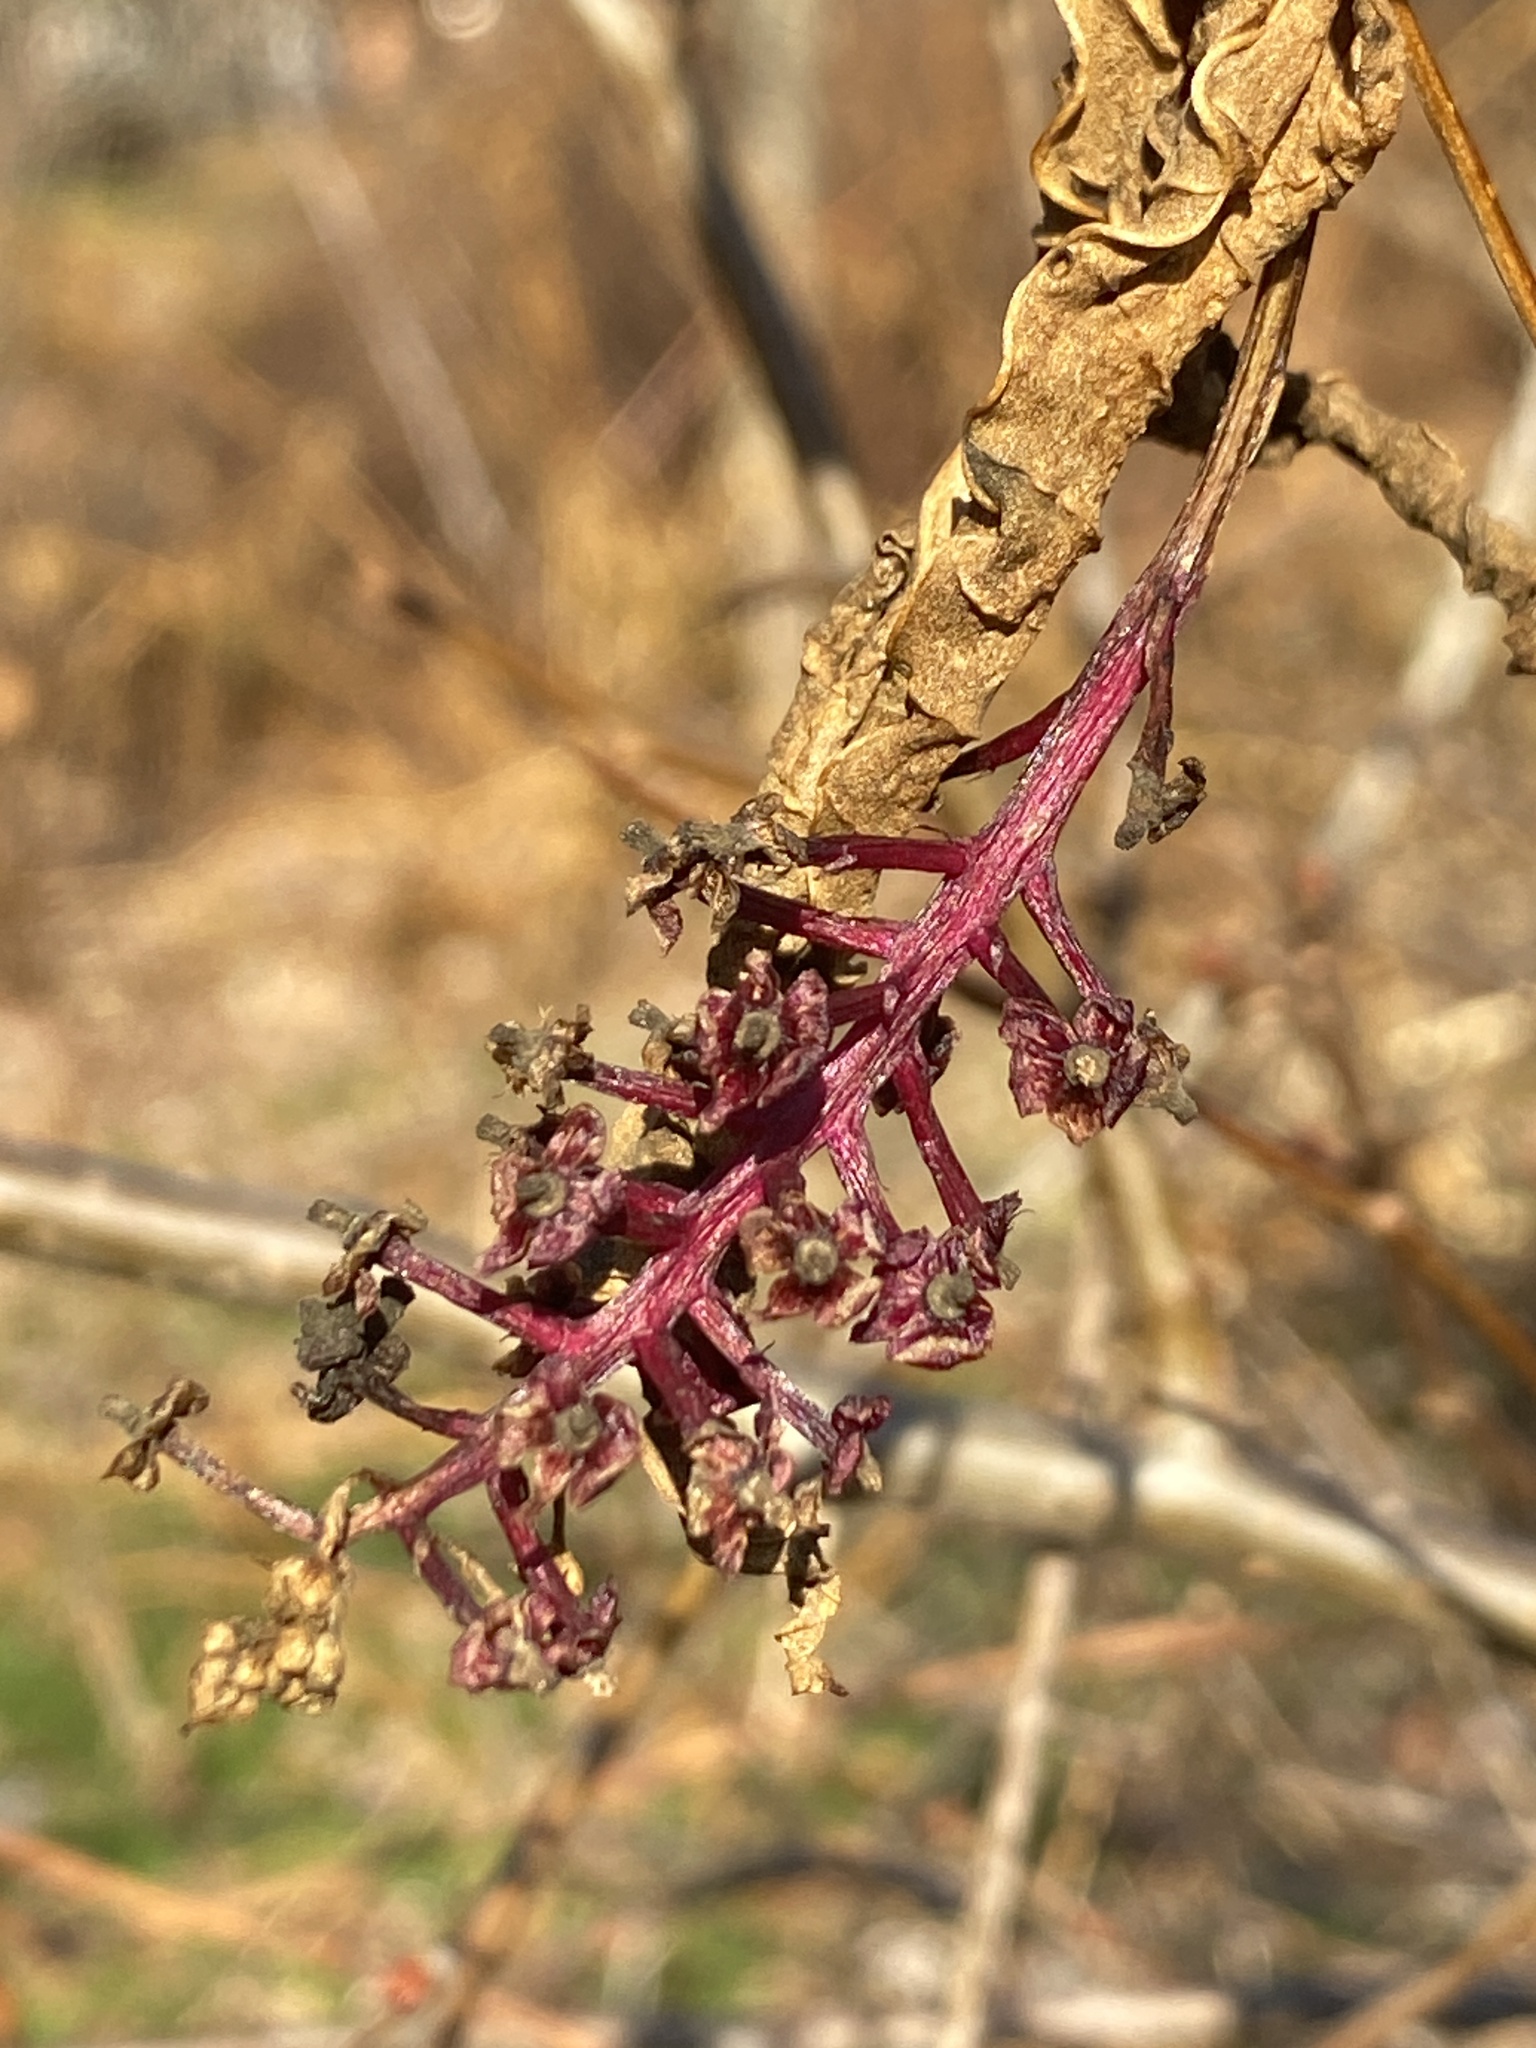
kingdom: Plantae
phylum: Tracheophyta
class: Magnoliopsida
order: Caryophyllales
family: Phytolaccaceae
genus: Phytolacca
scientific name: Phytolacca americana
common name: American pokeweed
